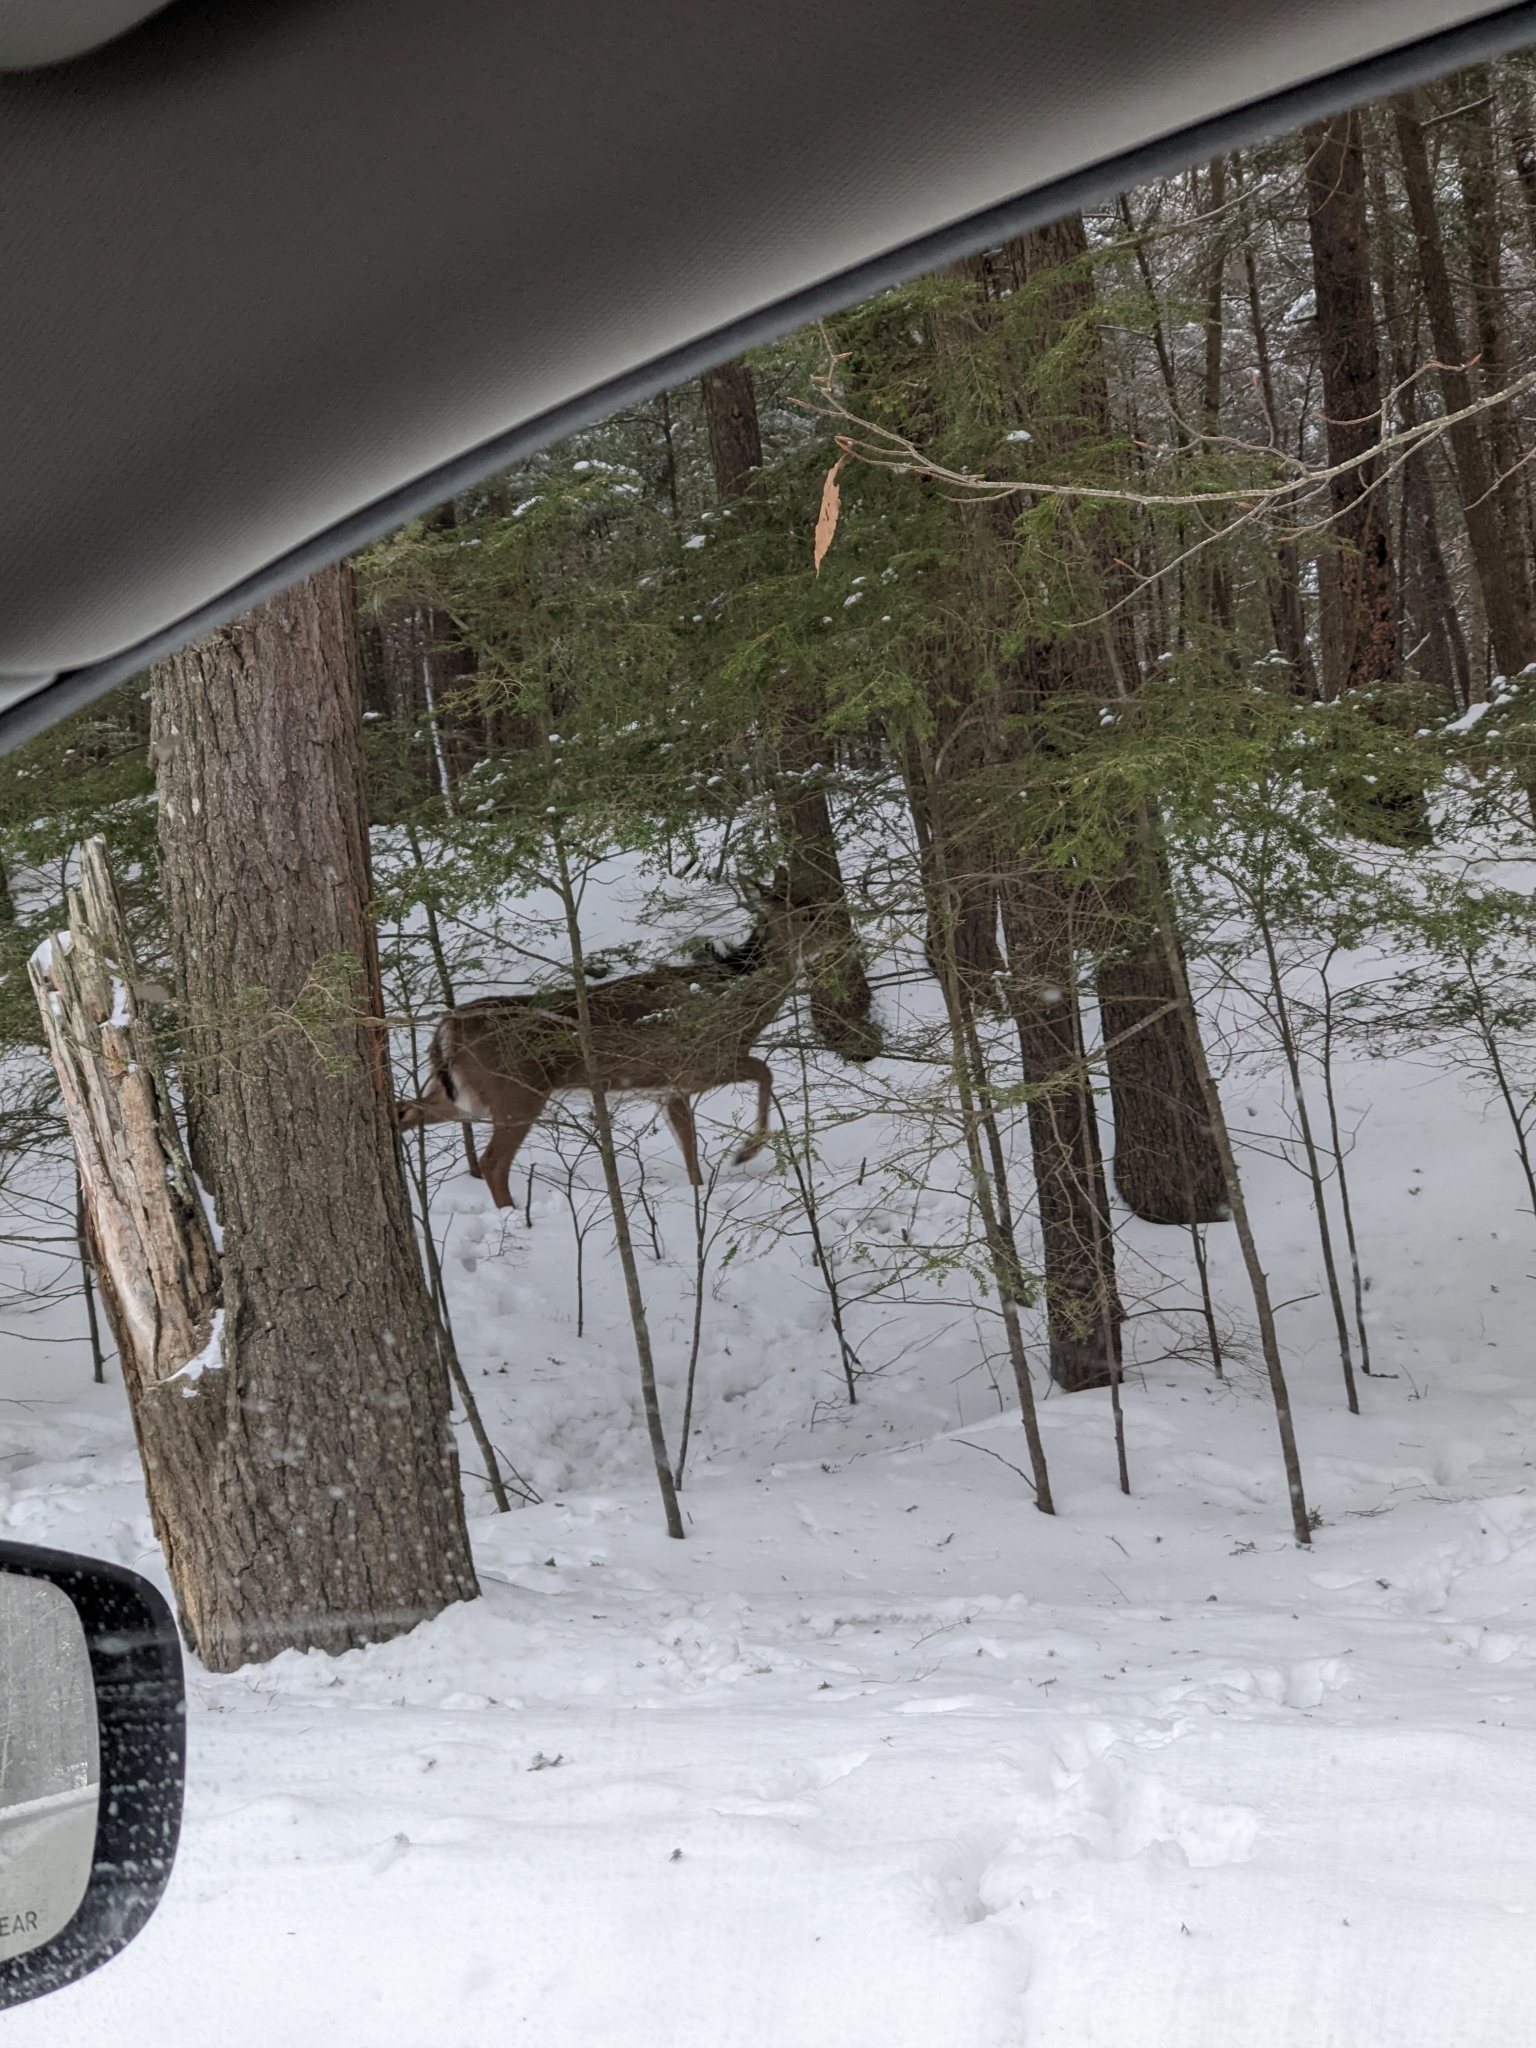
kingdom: Animalia
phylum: Chordata
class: Mammalia
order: Artiodactyla
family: Cervidae
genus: Odocoileus
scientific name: Odocoileus virginianus
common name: White-tailed deer
